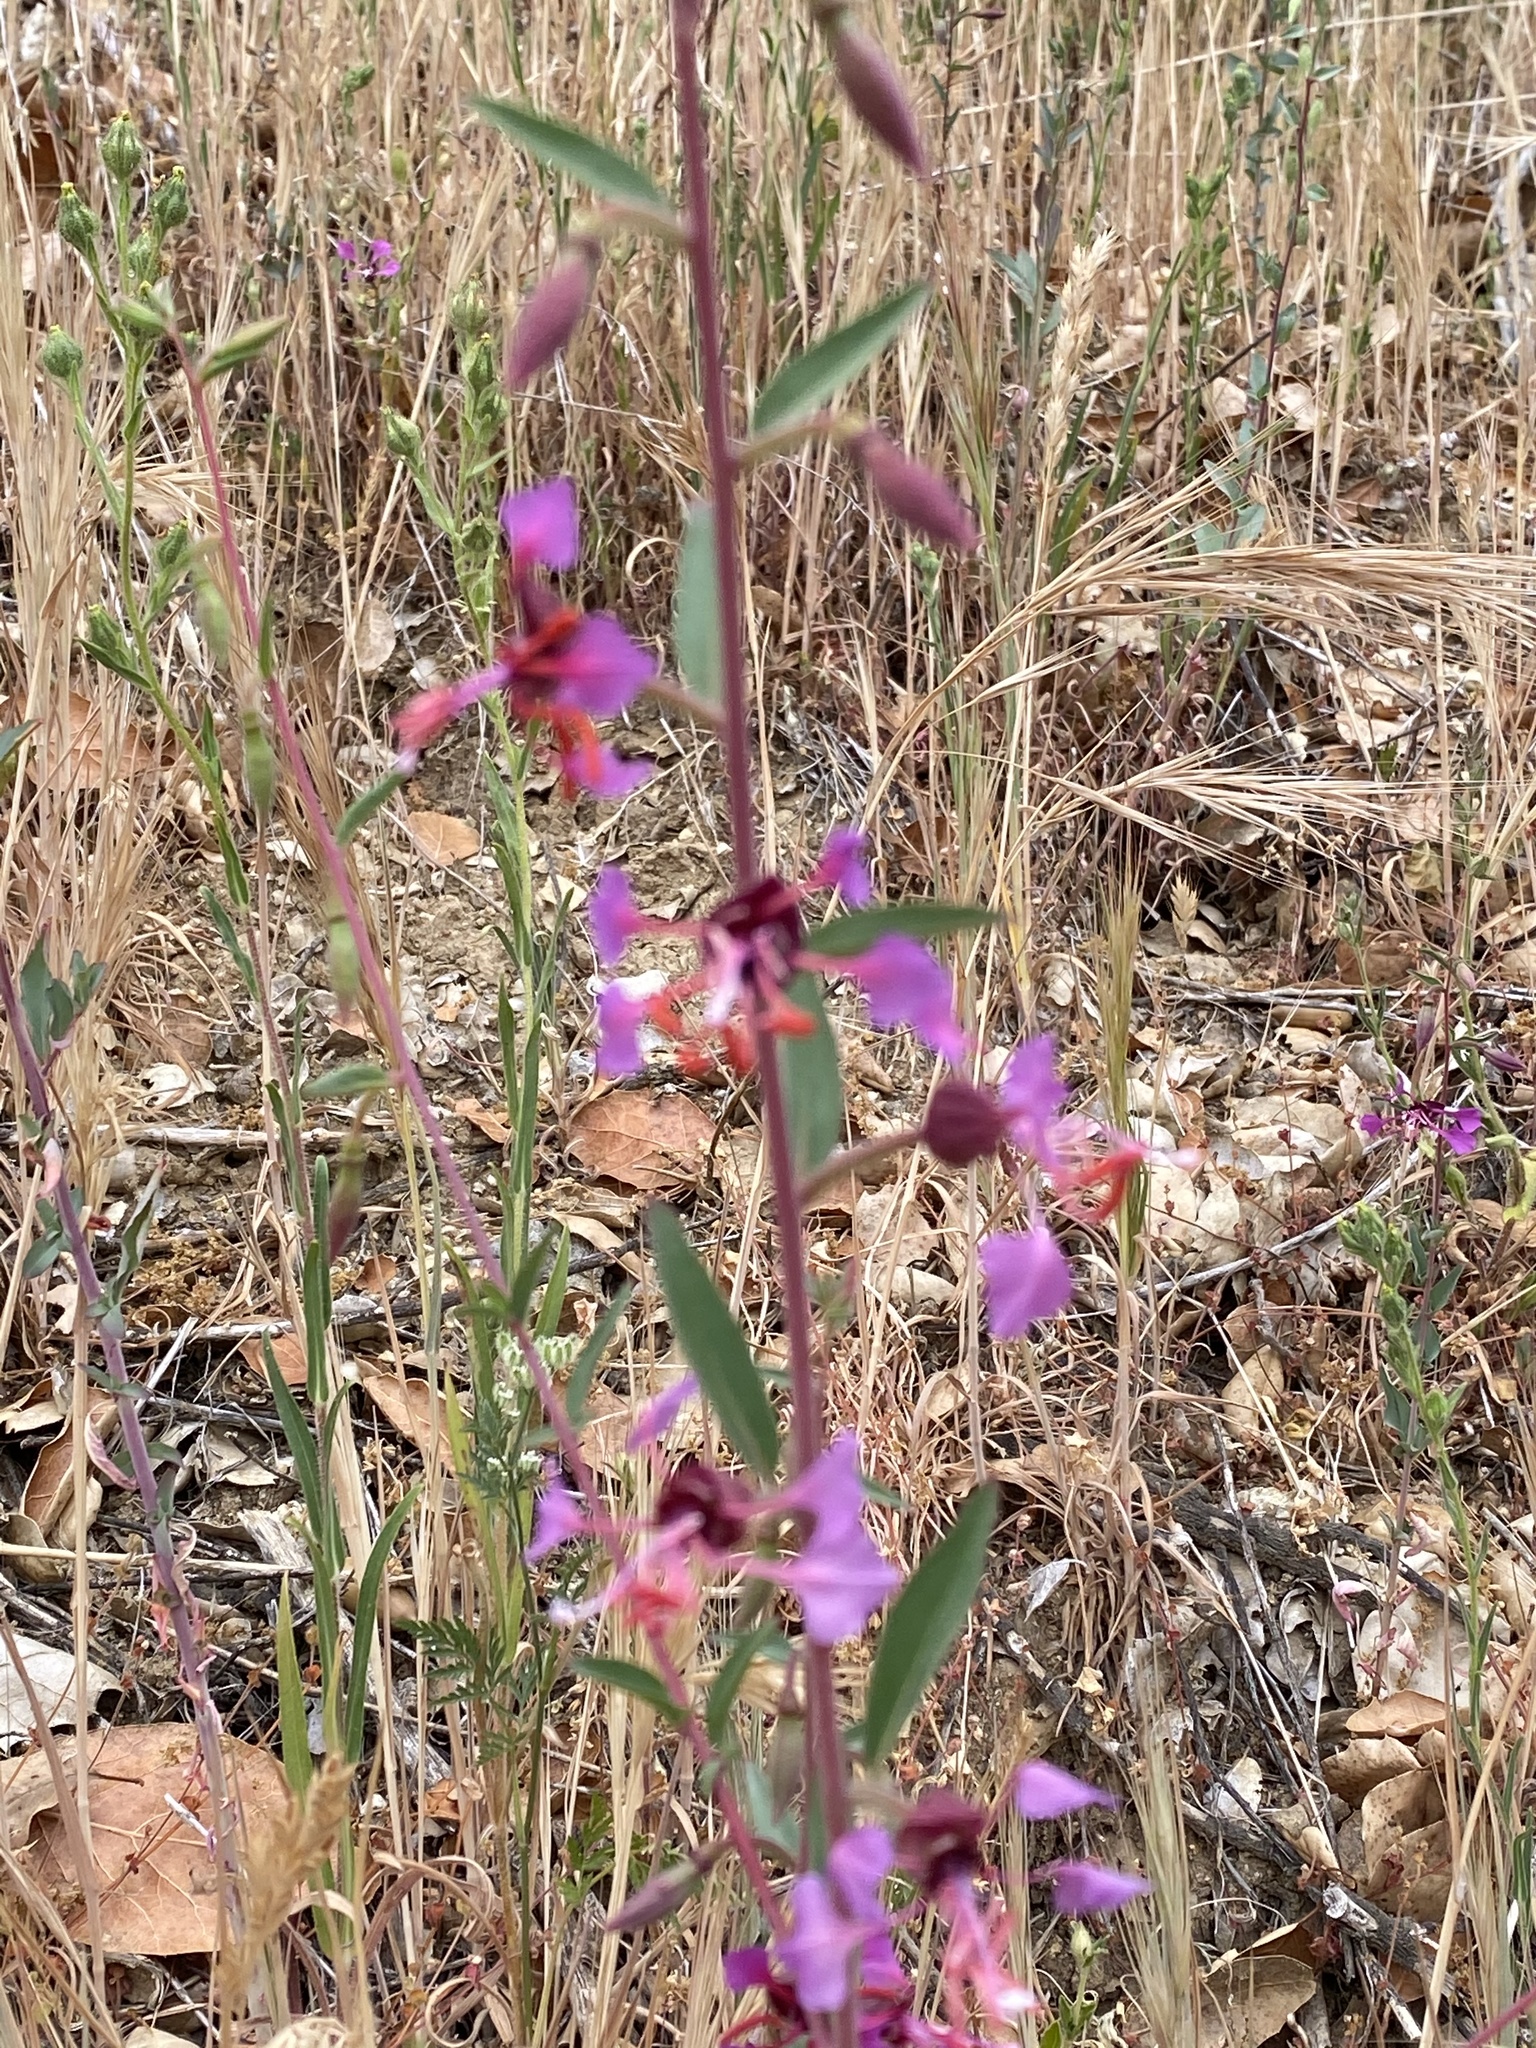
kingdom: Plantae
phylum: Tracheophyta
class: Magnoliopsida
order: Myrtales
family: Onagraceae
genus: Clarkia
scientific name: Clarkia unguiculata
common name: Clarkia
